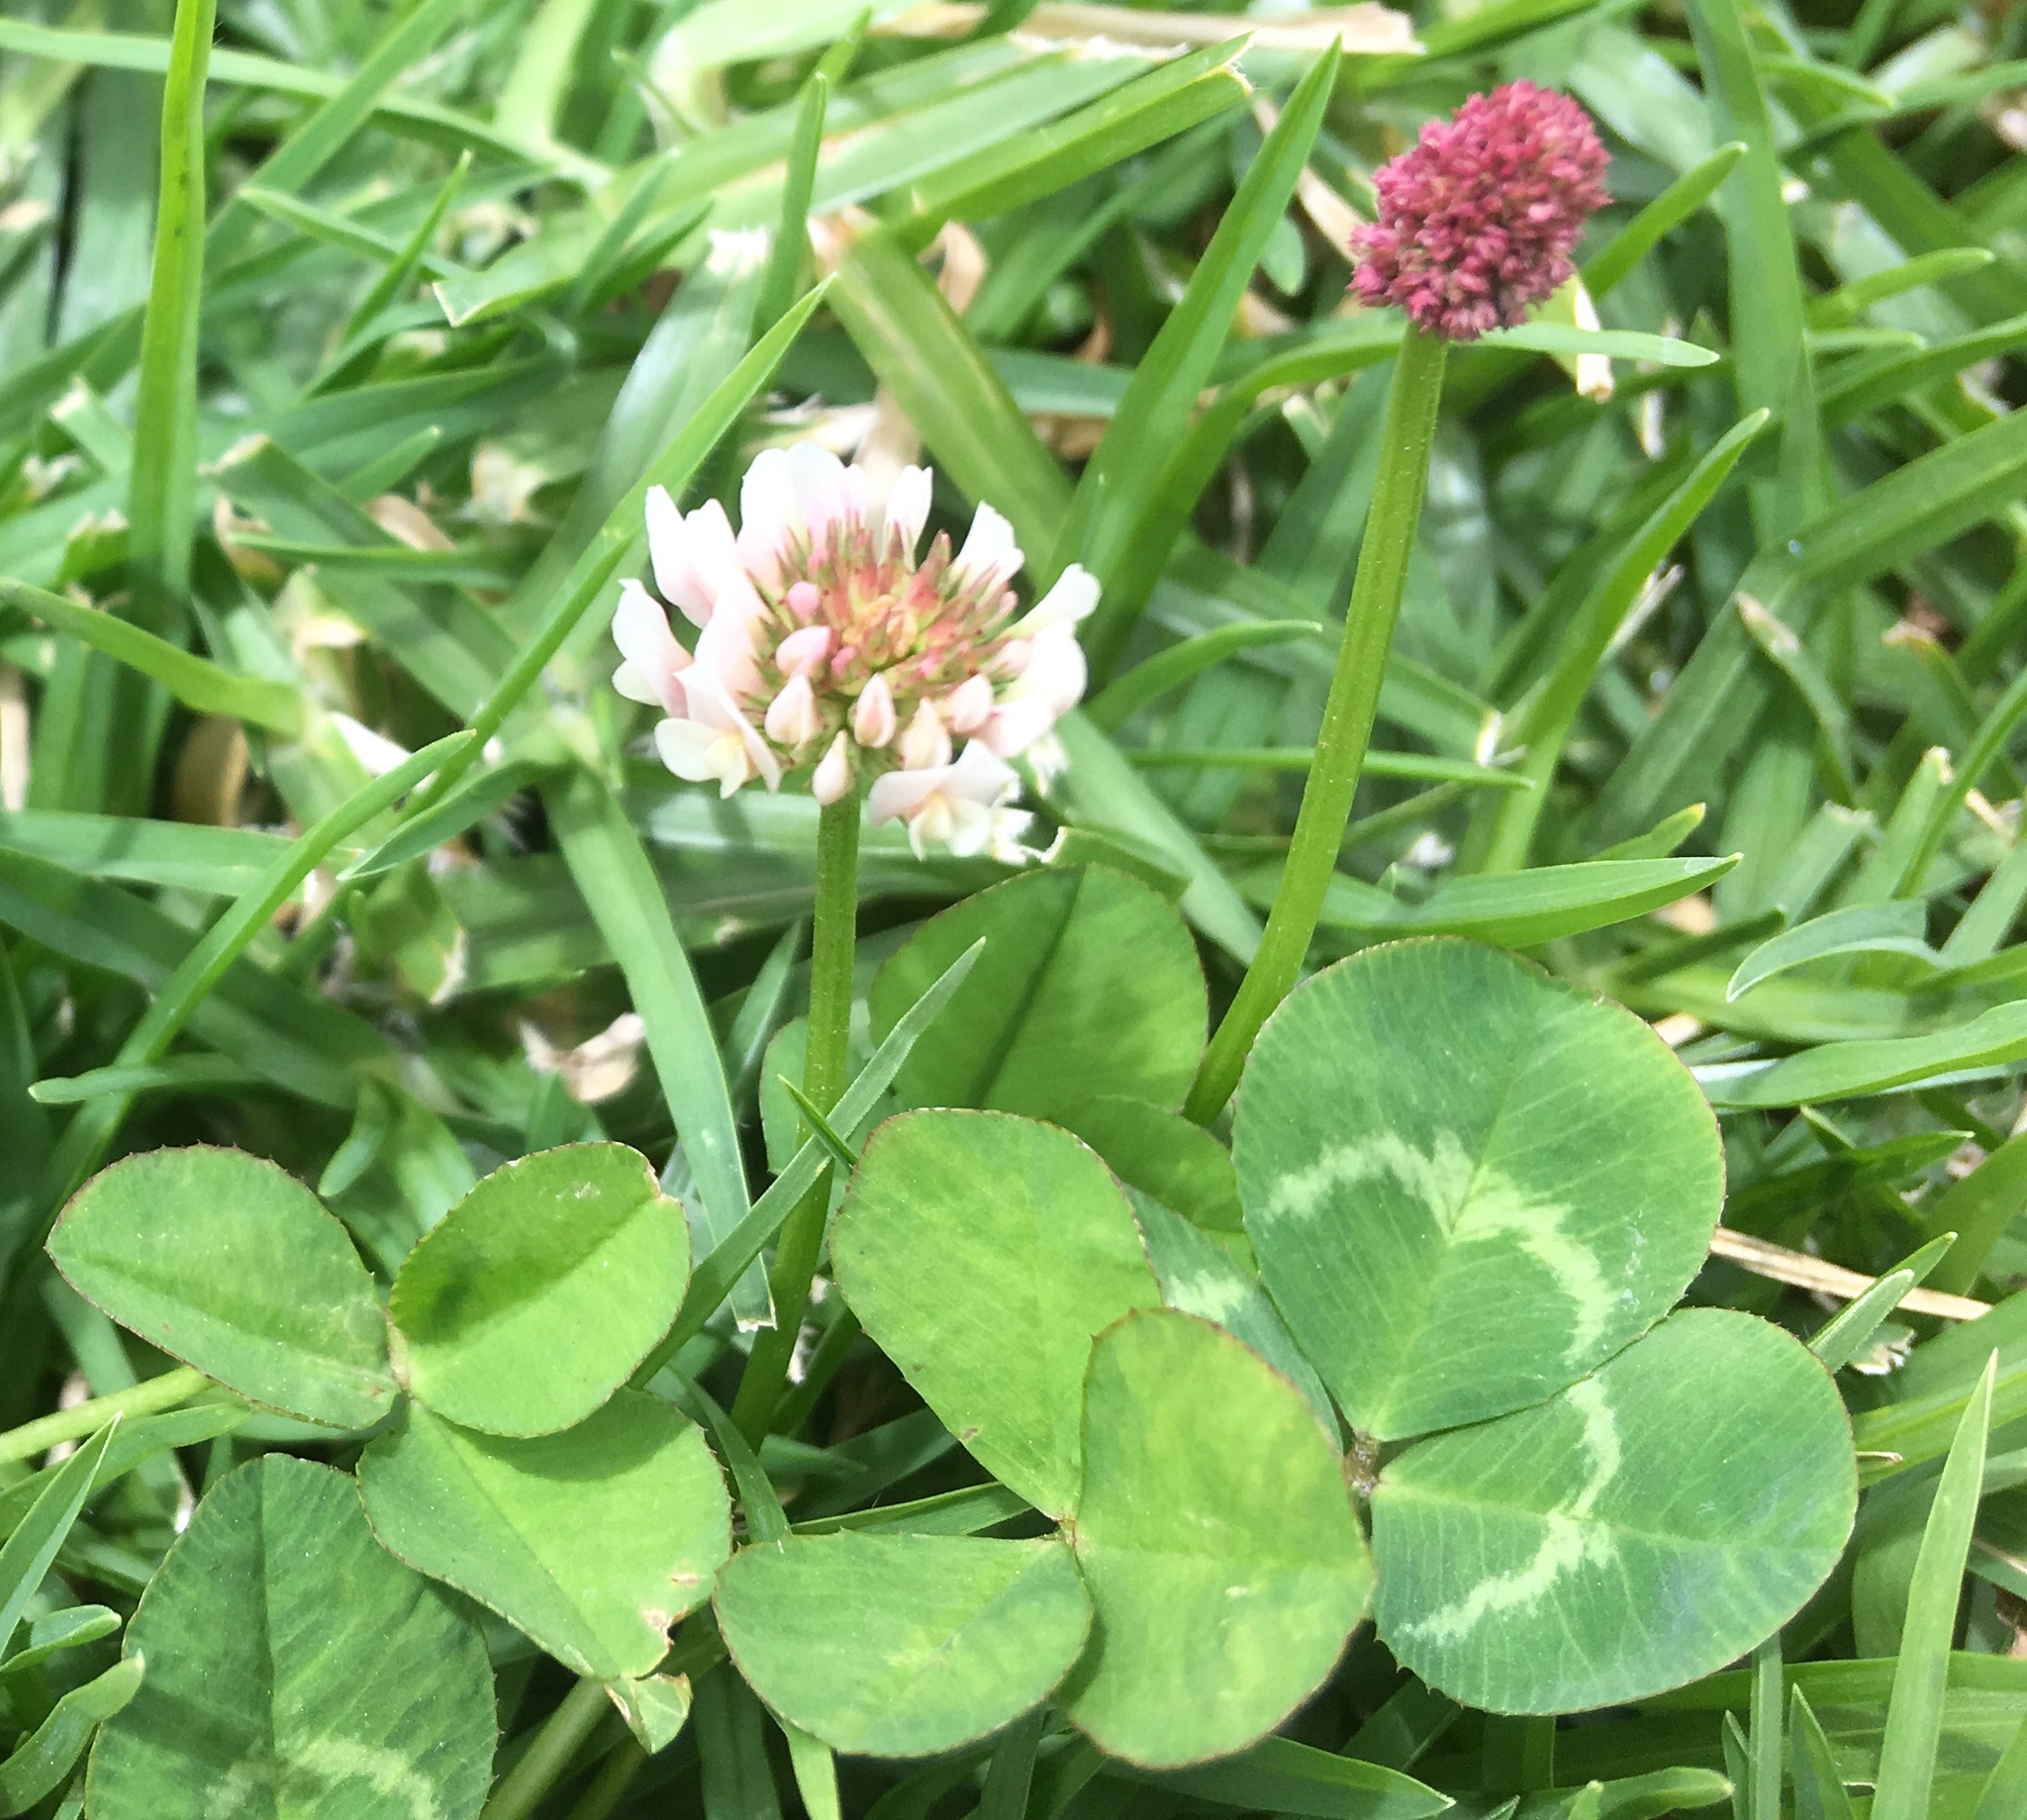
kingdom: Plantae
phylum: Tracheophyta
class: Magnoliopsida
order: Fabales
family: Fabaceae
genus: Trifolium
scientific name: Trifolium repens
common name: White clover
